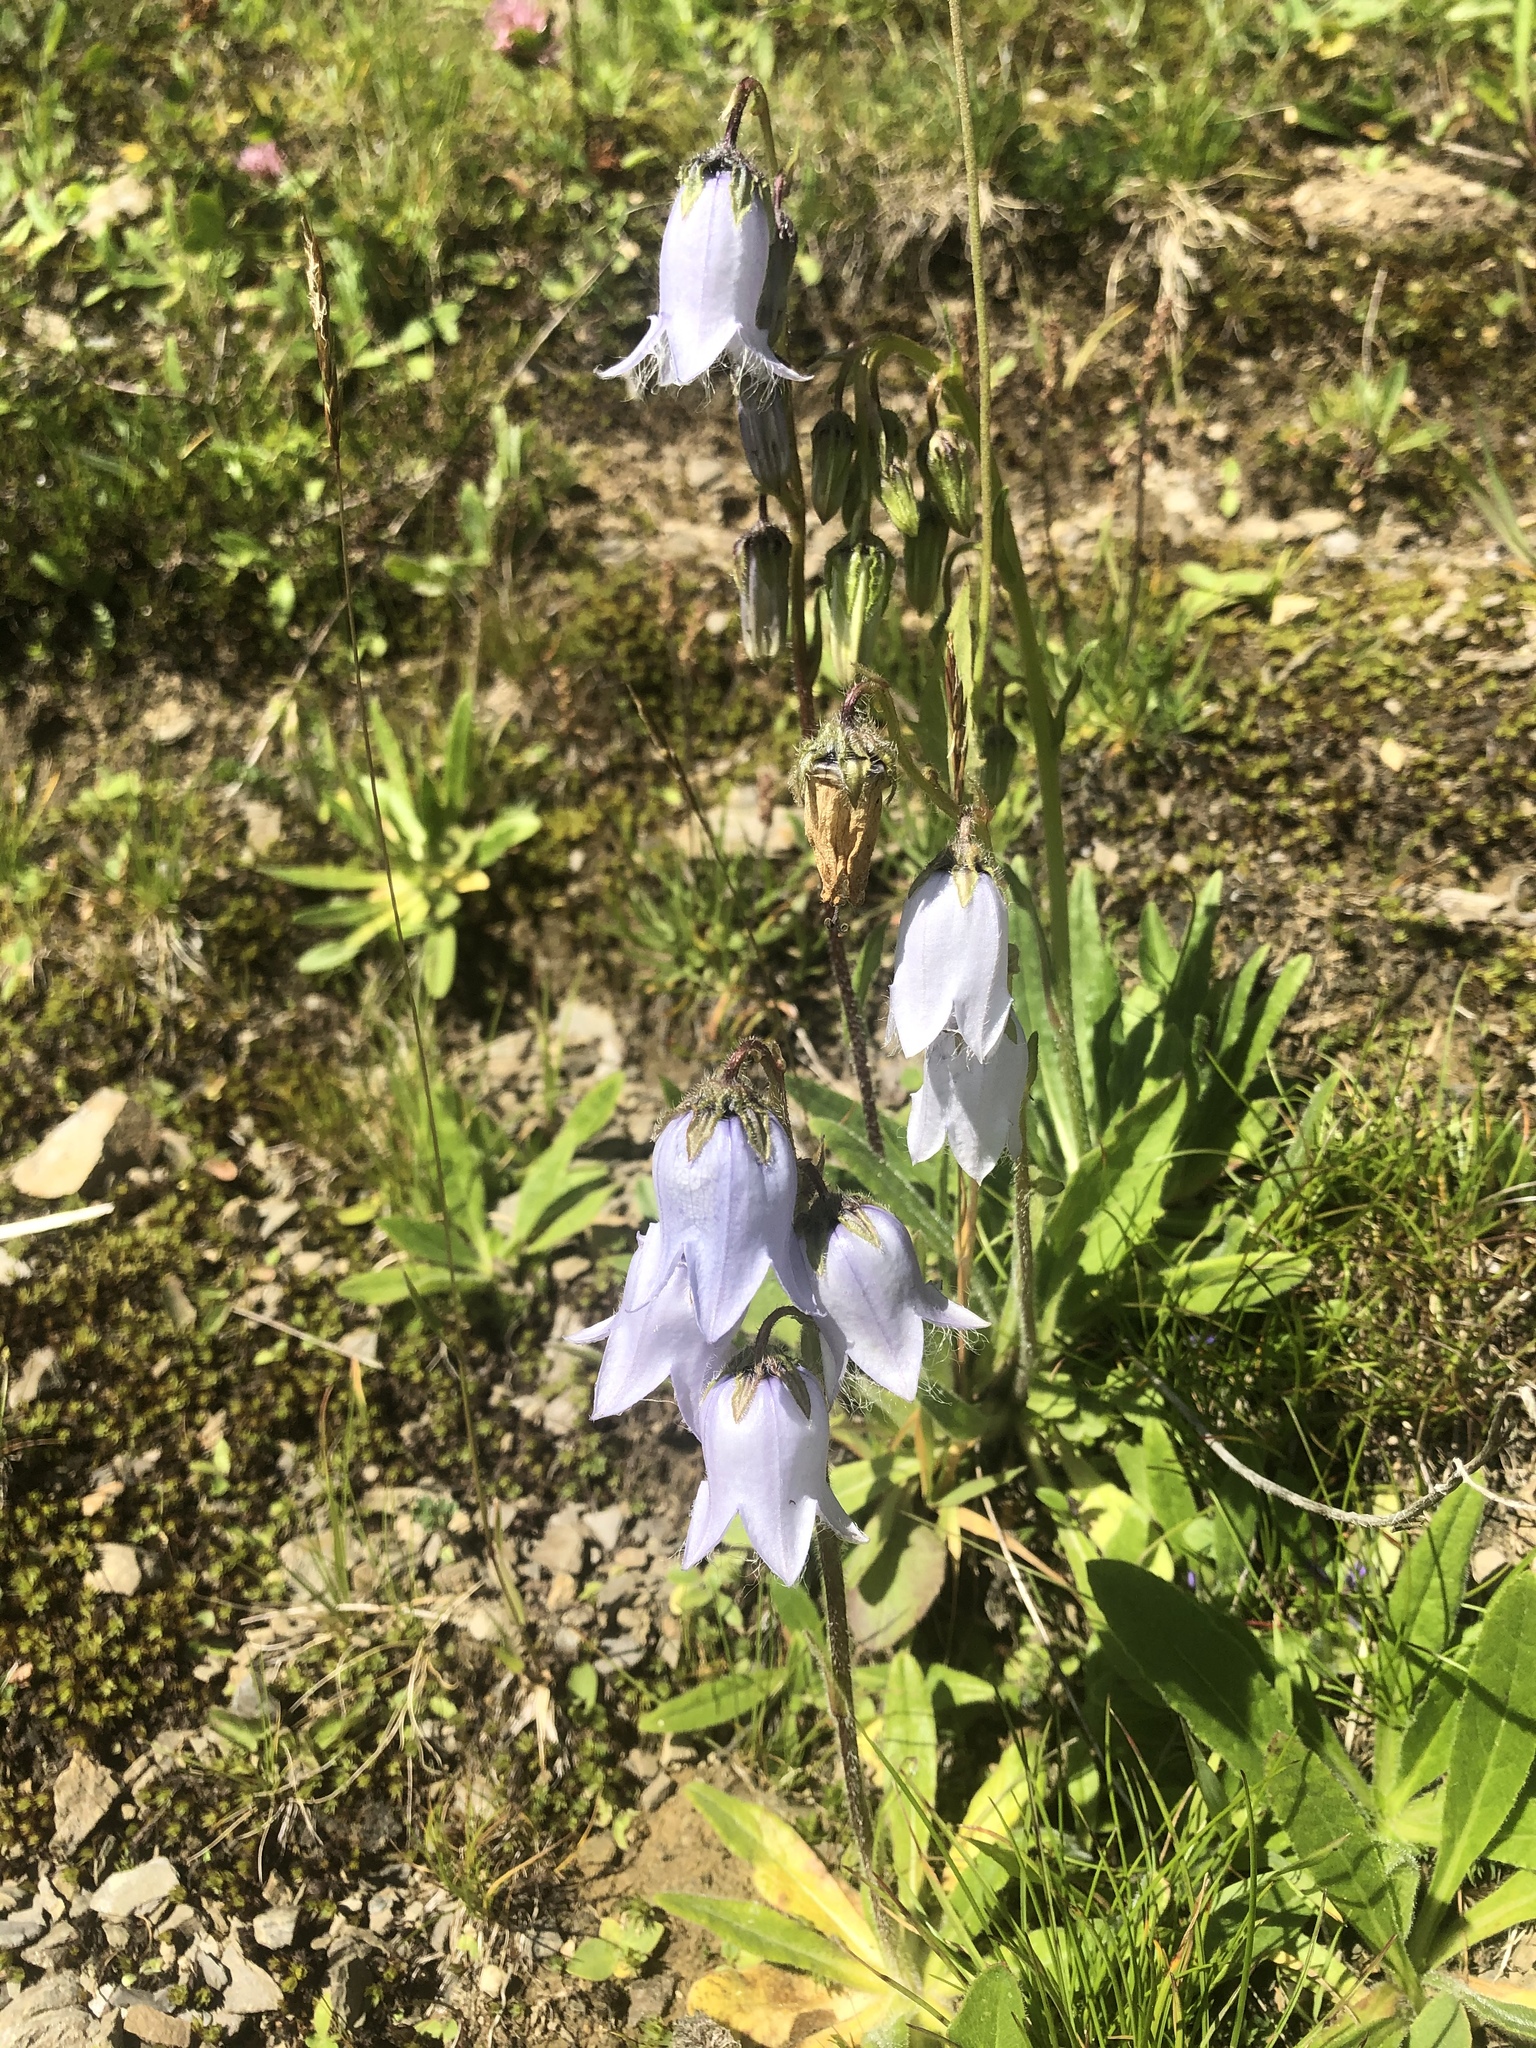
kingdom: Plantae
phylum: Tracheophyta
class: Magnoliopsida
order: Asterales
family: Campanulaceae
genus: Campanula
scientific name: Campanula barbata
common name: Bearded bellflower
